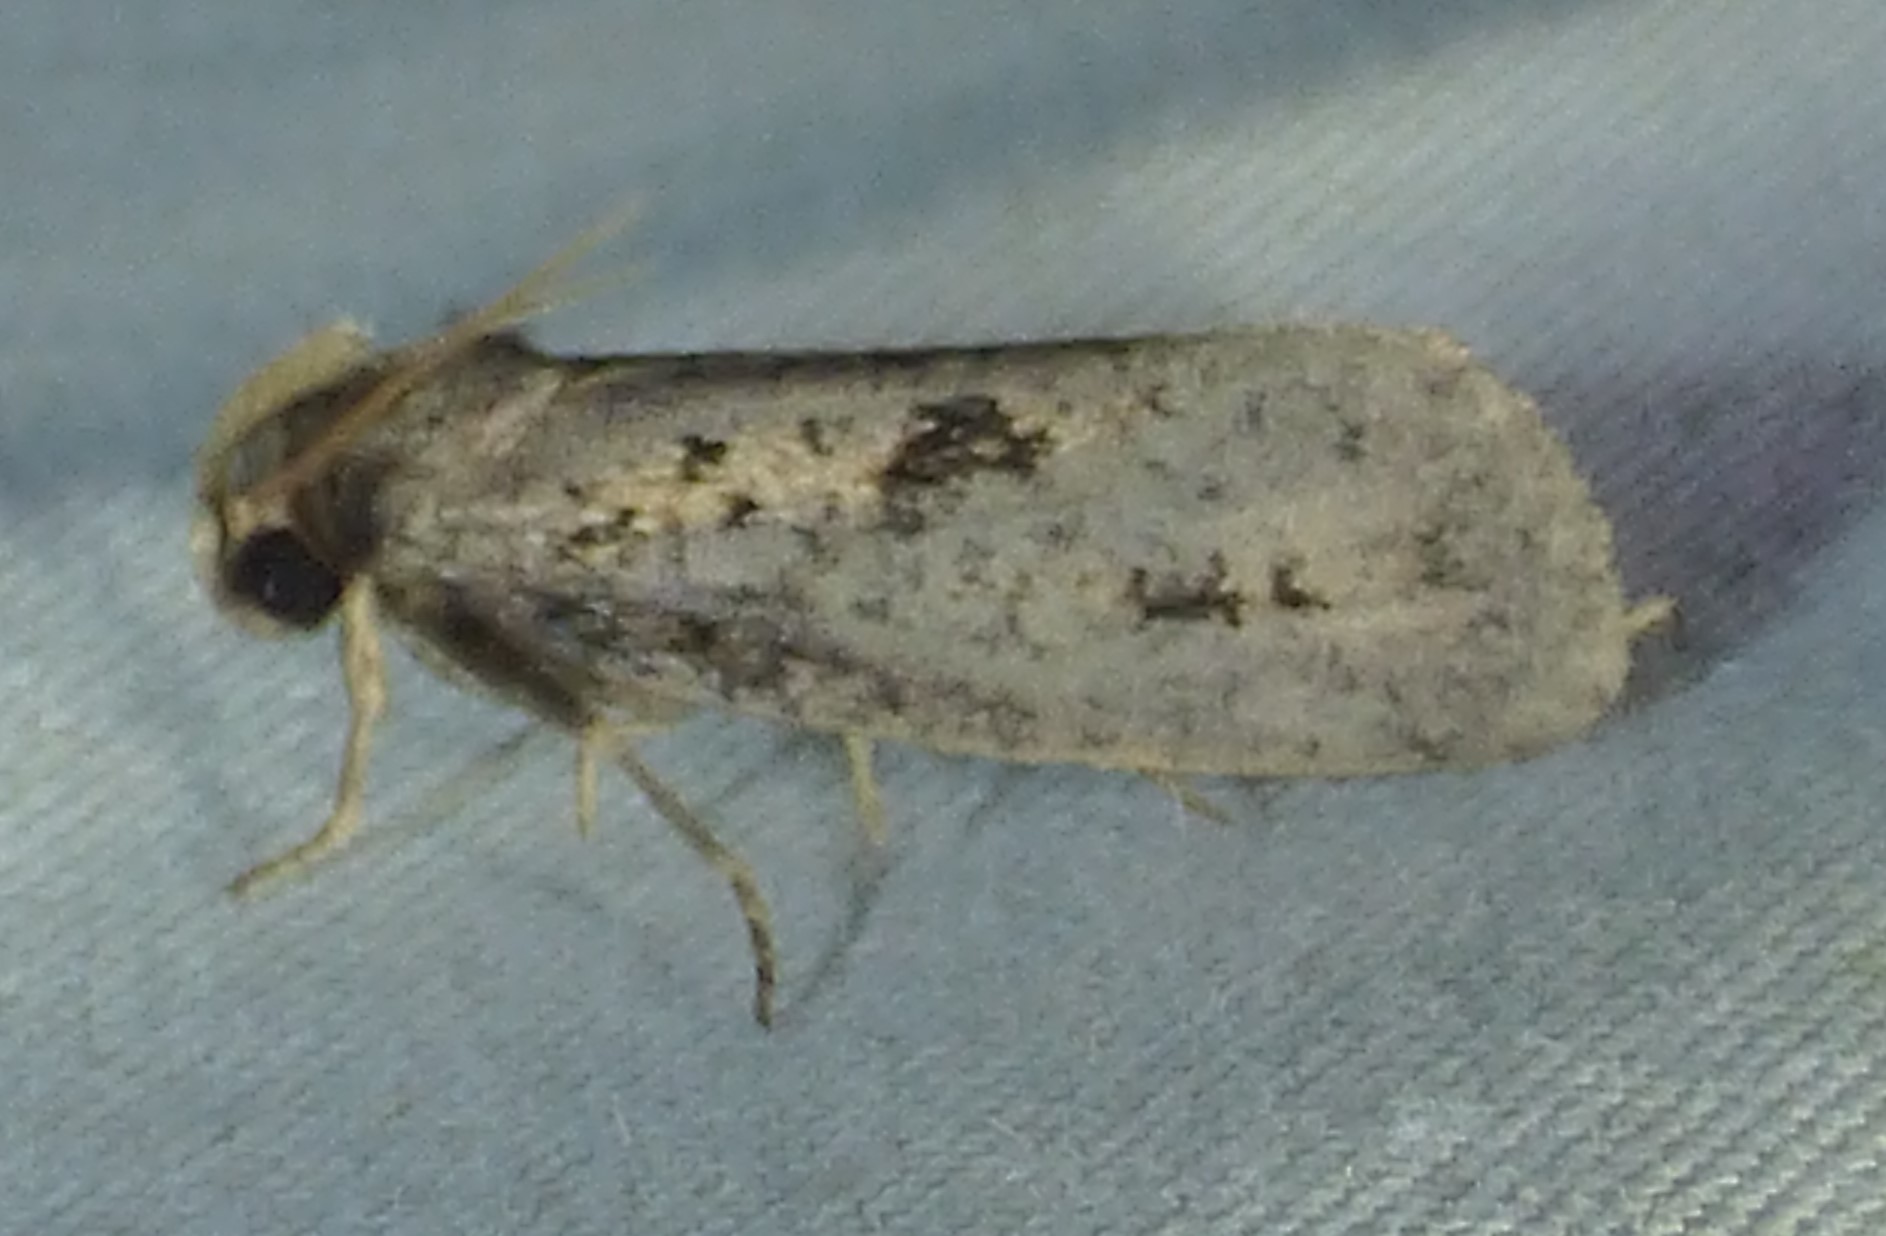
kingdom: Animalia
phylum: Arthropoda
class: Insecta
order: Lepidoptera
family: Tineidae
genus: Acrolophus
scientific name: Acrolophus popeanella
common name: Clemens' grass tubeworm moth
